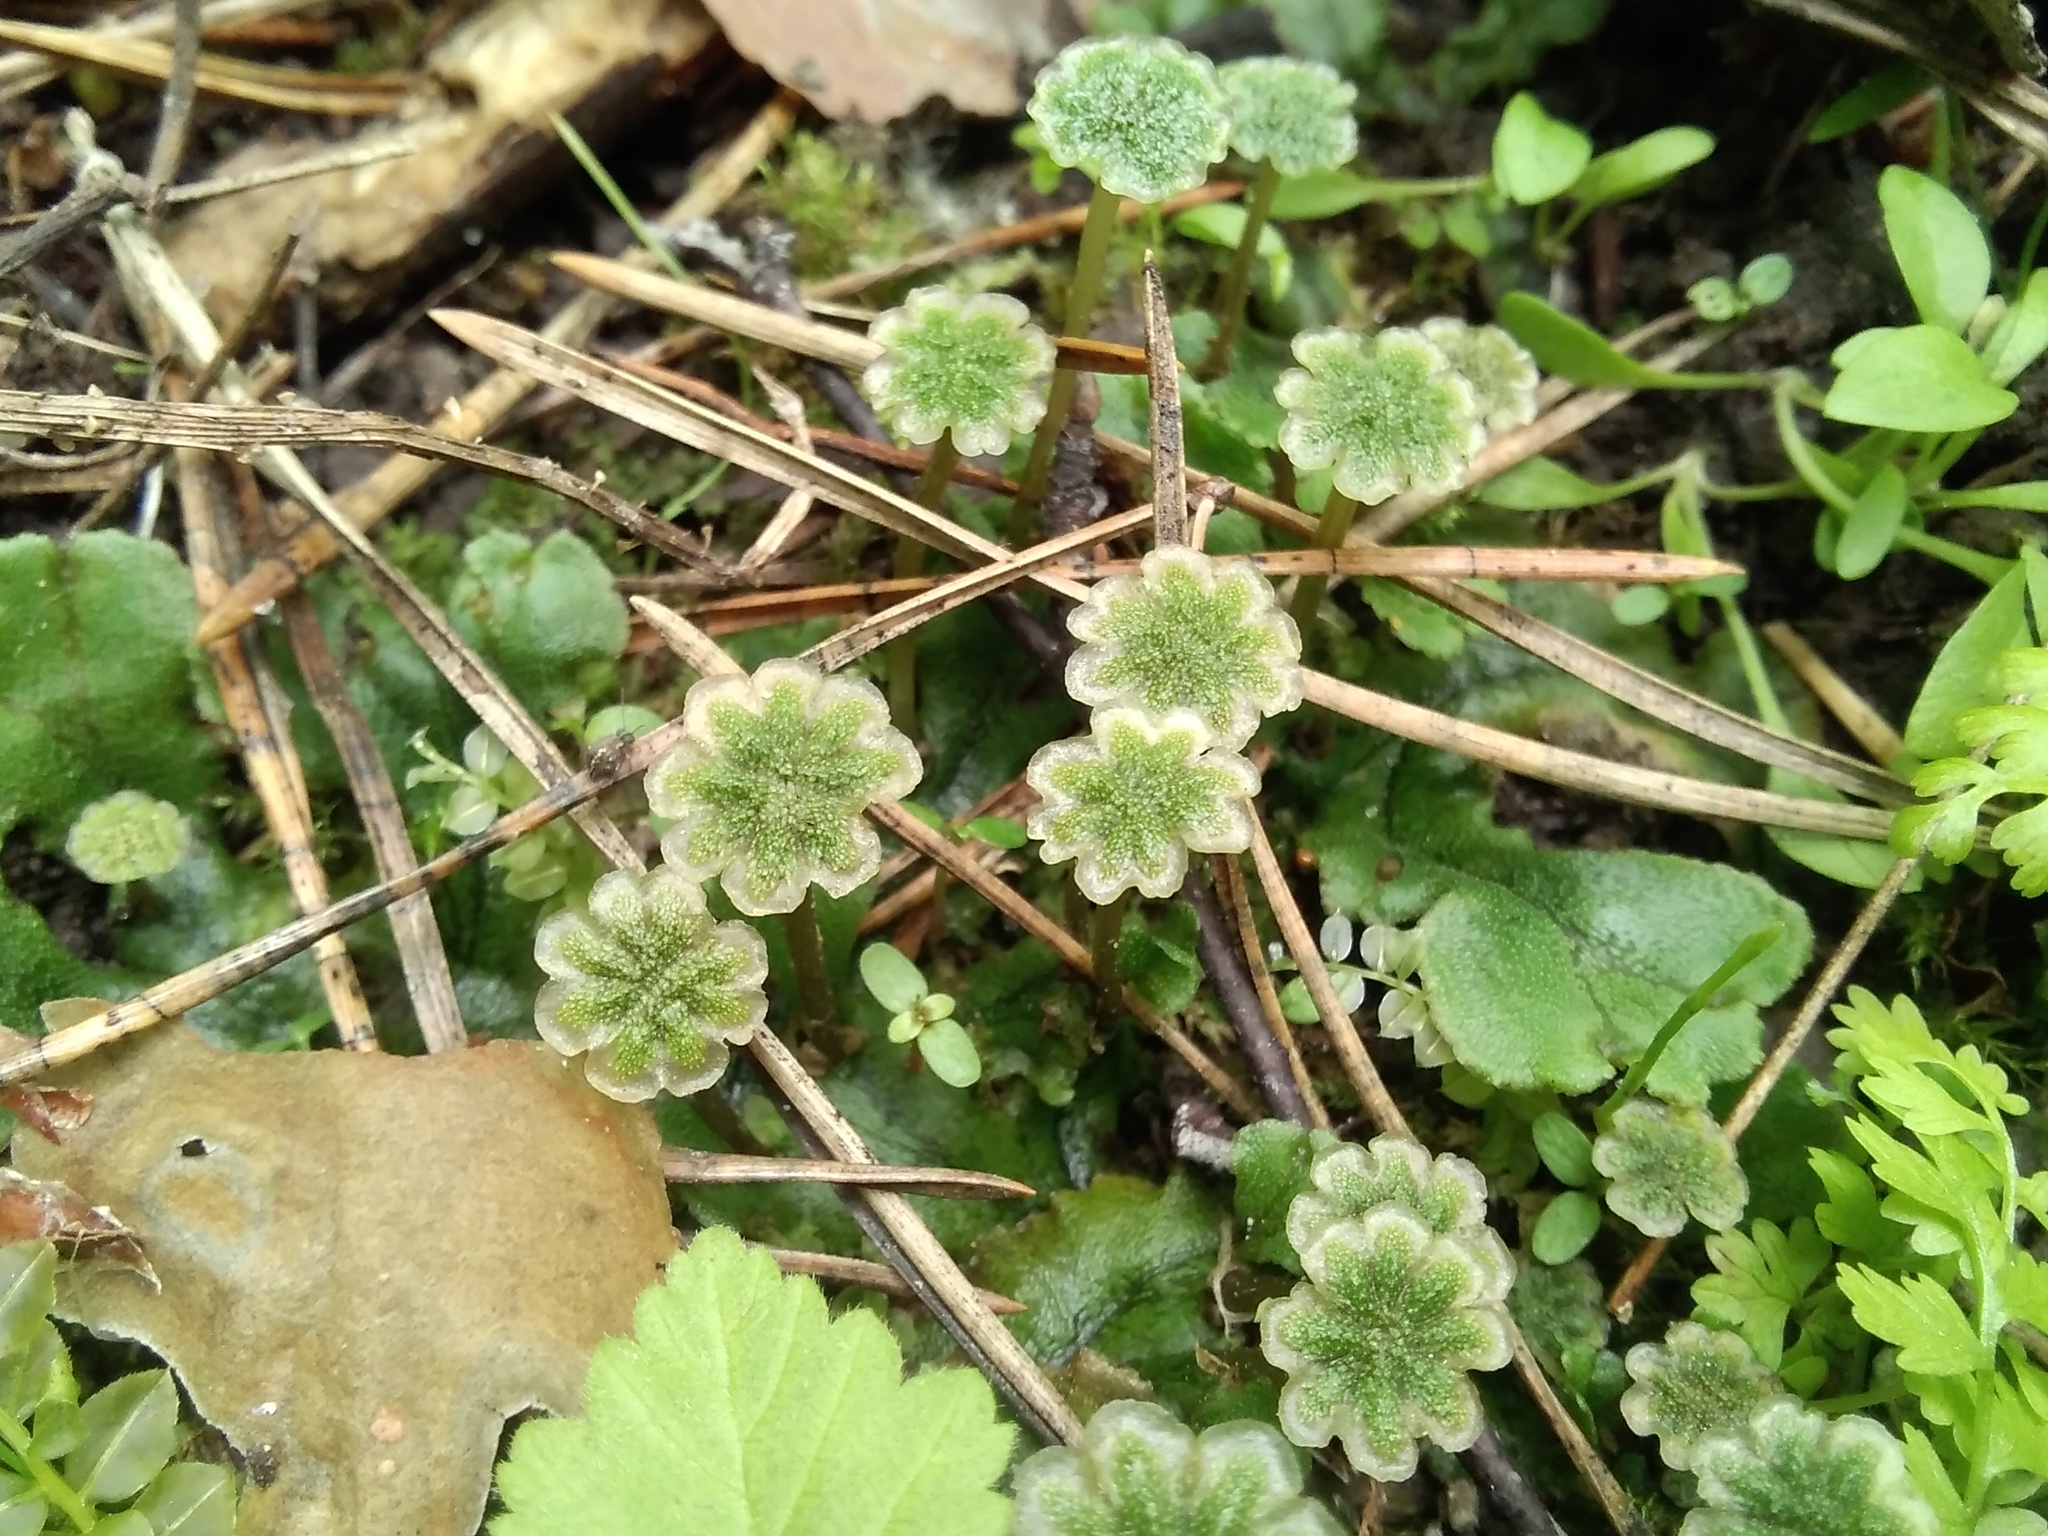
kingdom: Plantae
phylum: Marchantiophyta
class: Marchantiopsida
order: Marchantiales
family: Marchantiaceae
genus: Marchantia
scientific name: Marchantia polymorpha
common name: Common liverwort
